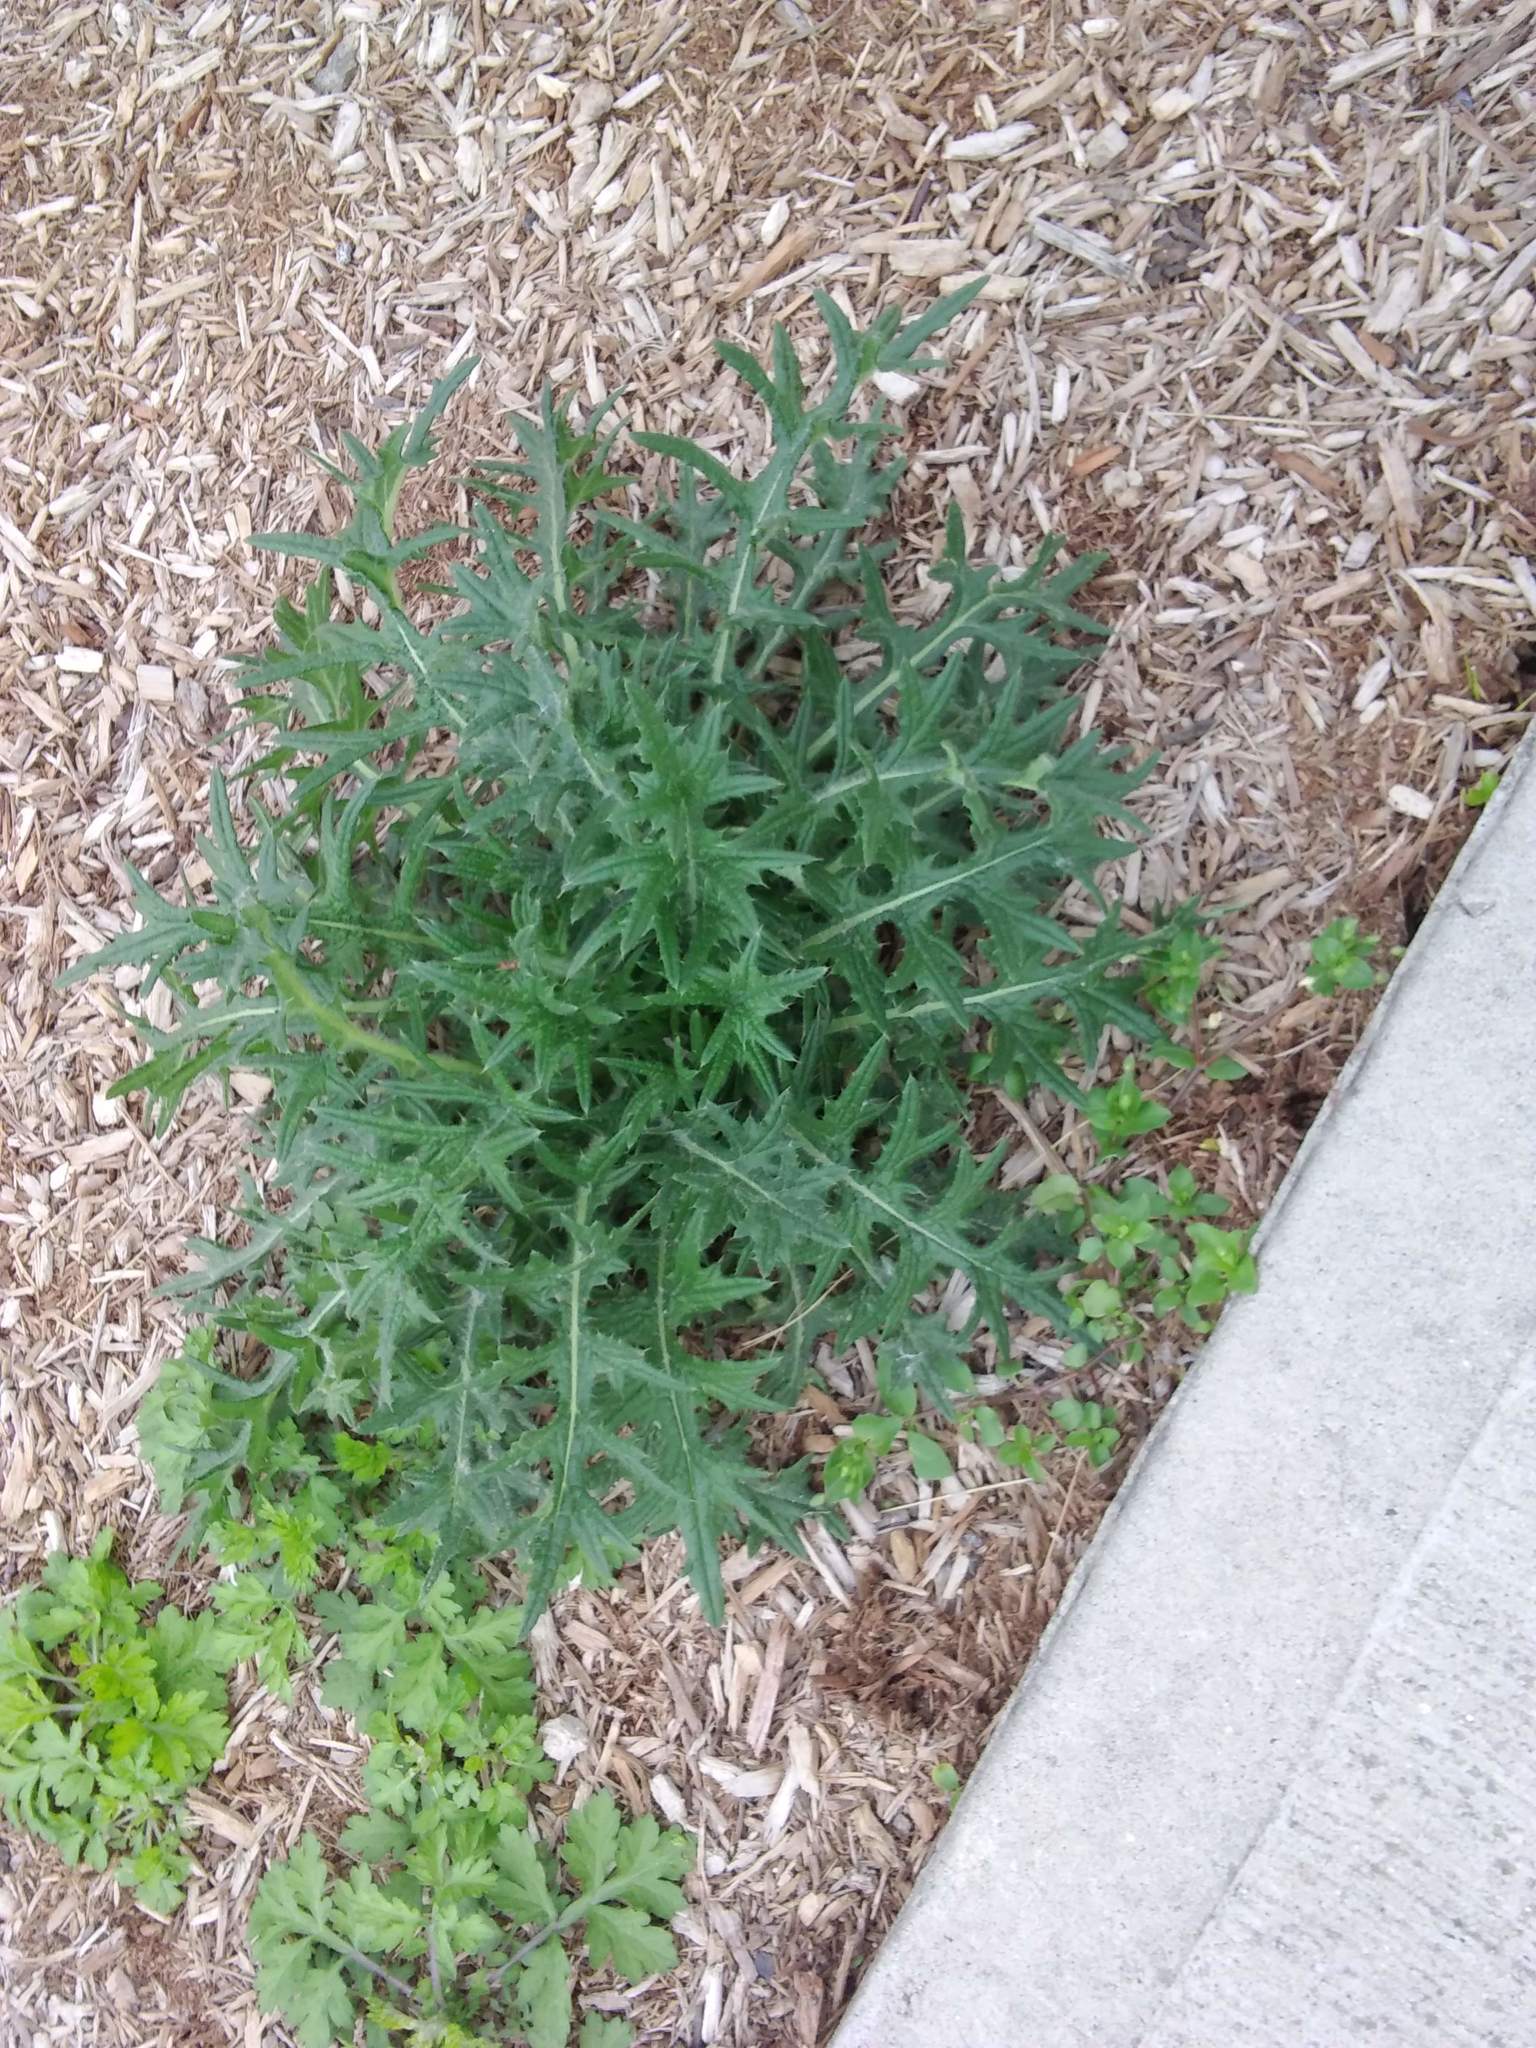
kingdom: Plantae
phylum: Tracheophyta
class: Magnoliopsida
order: Asterales
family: Asteraceae
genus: Cirsium
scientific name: Cirsium vulgare
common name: Bull thistle
